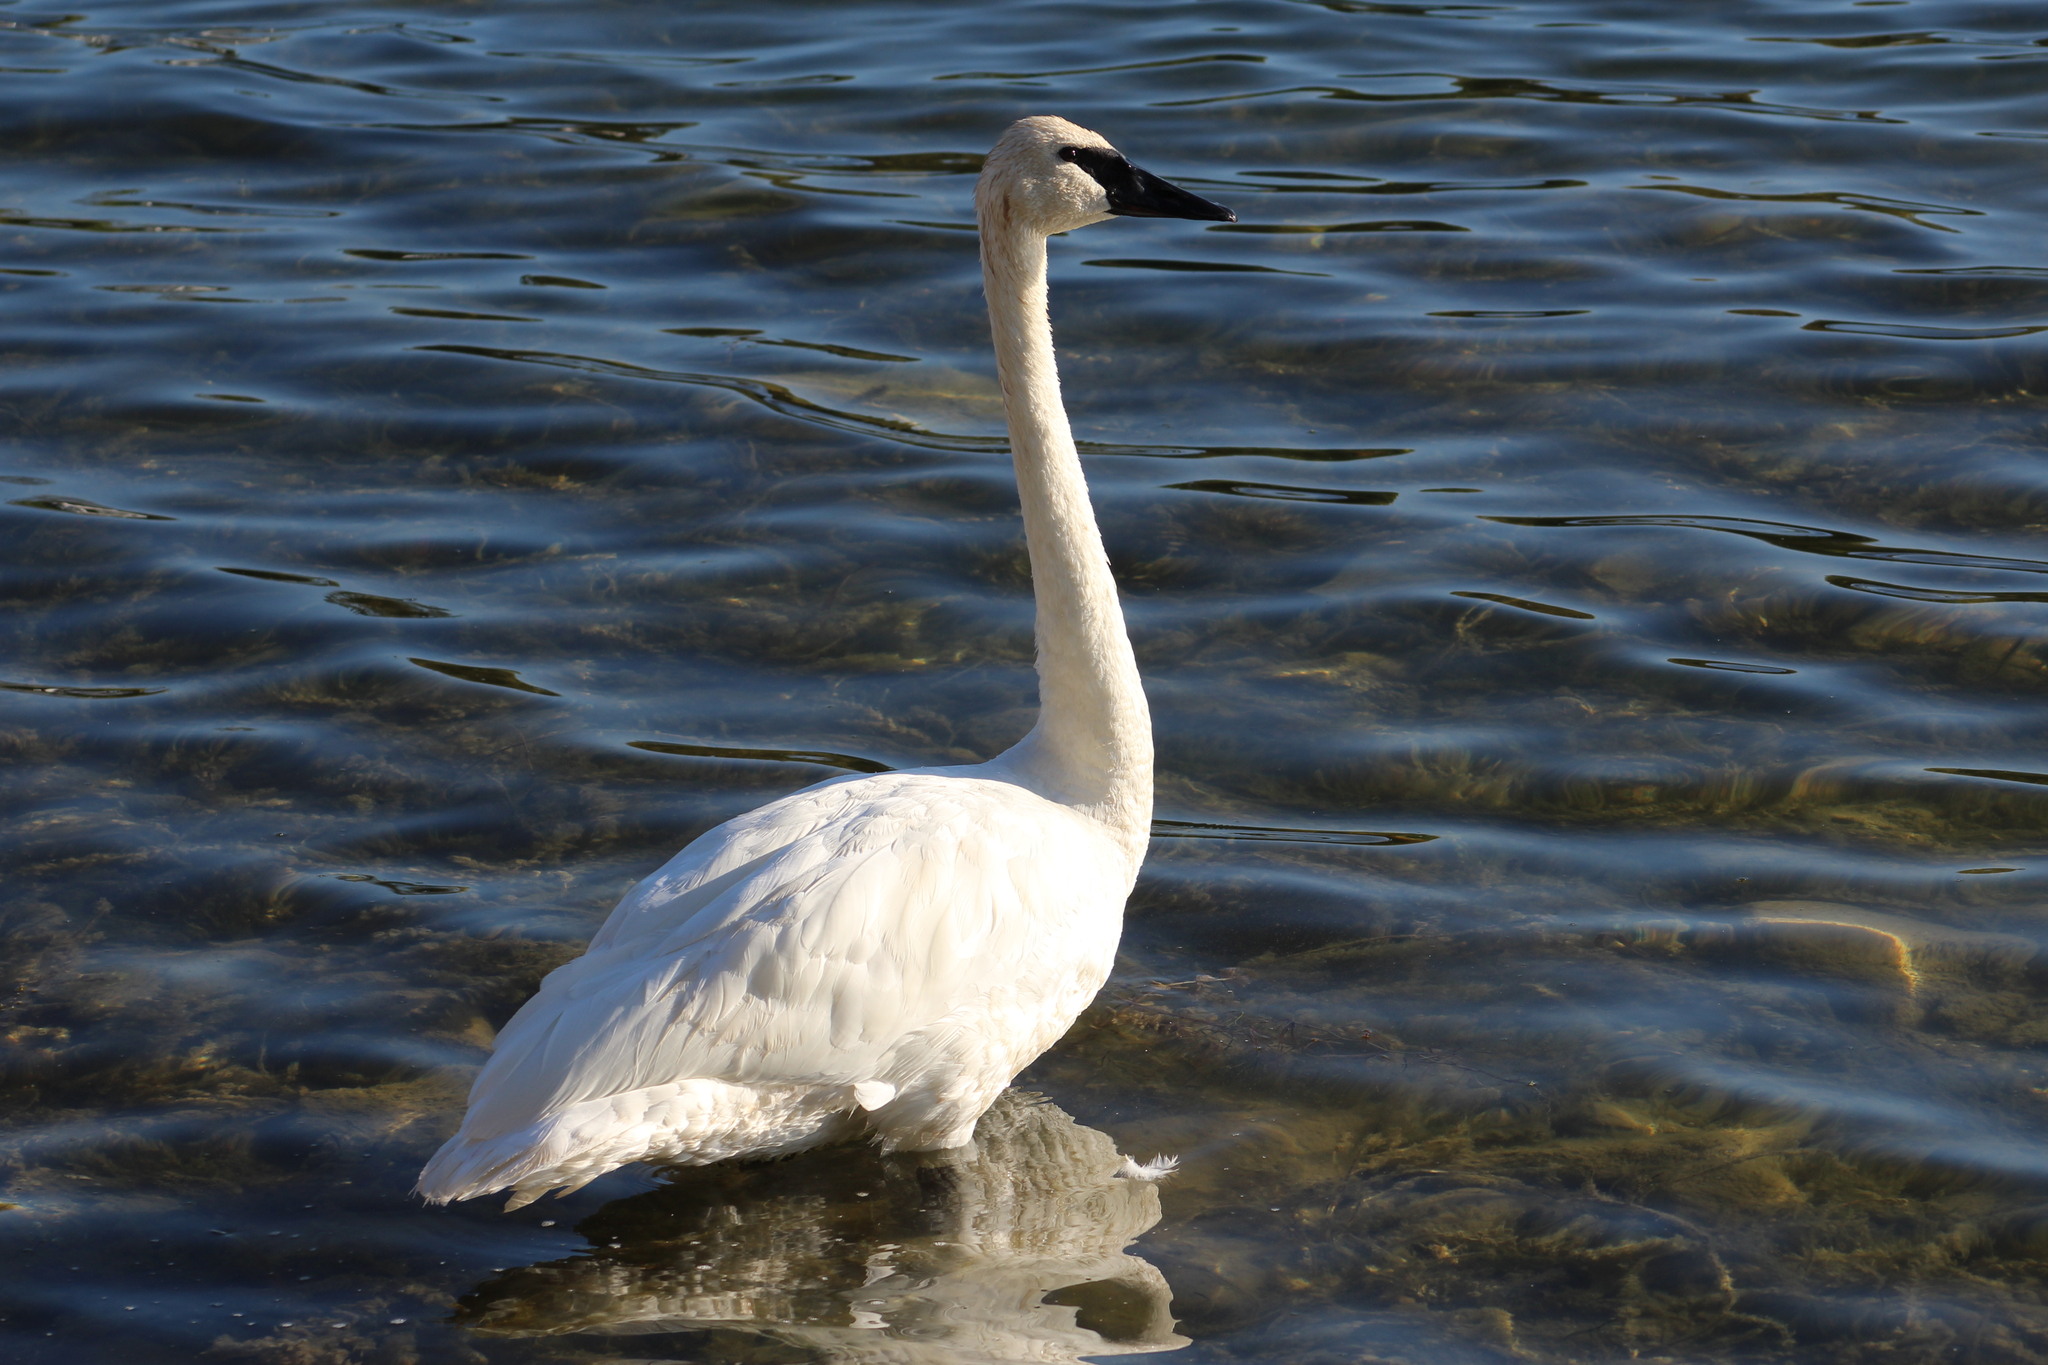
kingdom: Animalia
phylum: Chordata
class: Aves
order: Anseriformes
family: Anatidae
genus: Cygnus
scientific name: Cygnus buccinator
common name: Trumpeter swan
